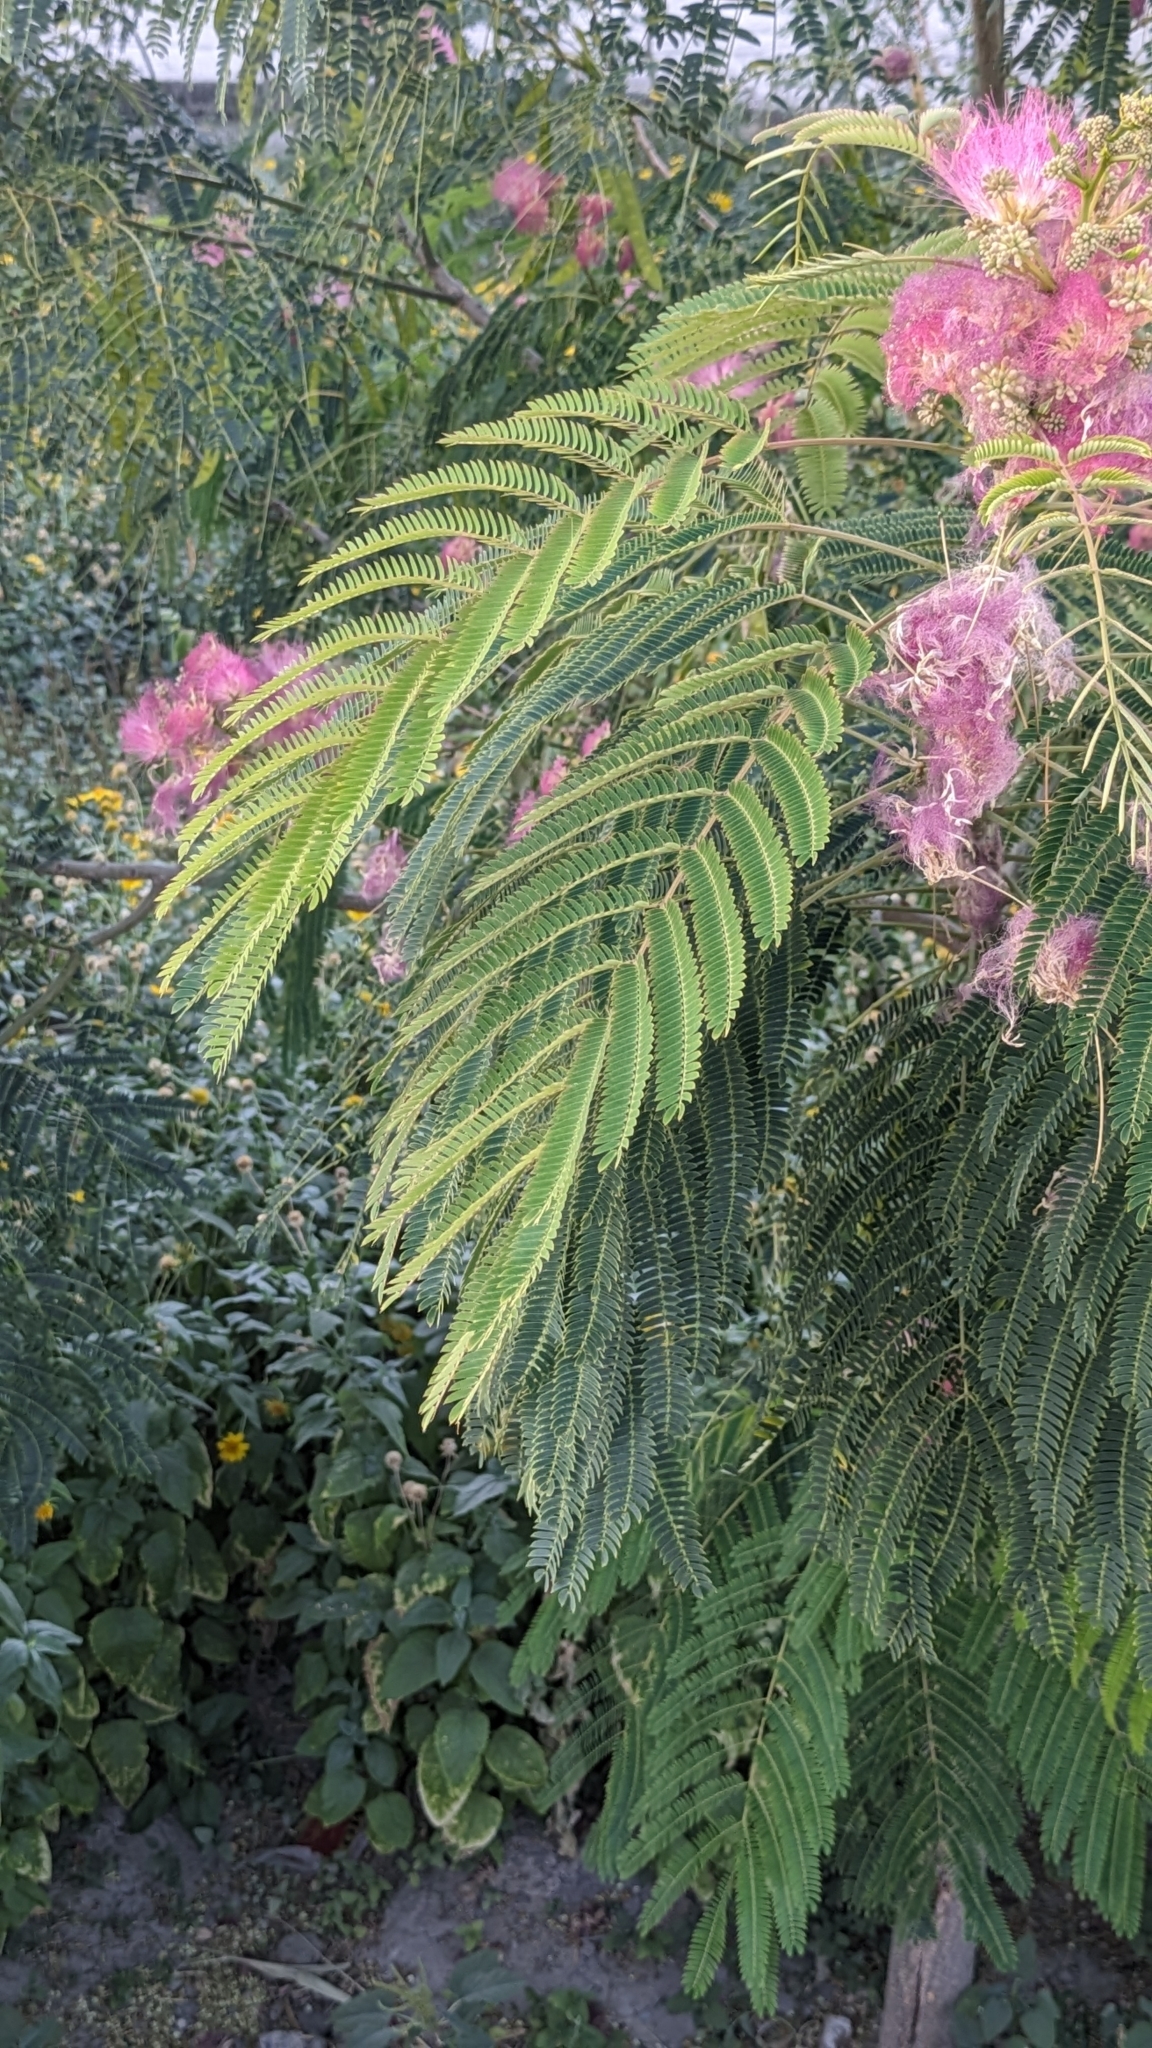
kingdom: Plantae
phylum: Tracheophyta
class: Magnoliopsida
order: Fabales
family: Fabaceae
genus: Albizia
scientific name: Albizia julibrissin
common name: Silktree
